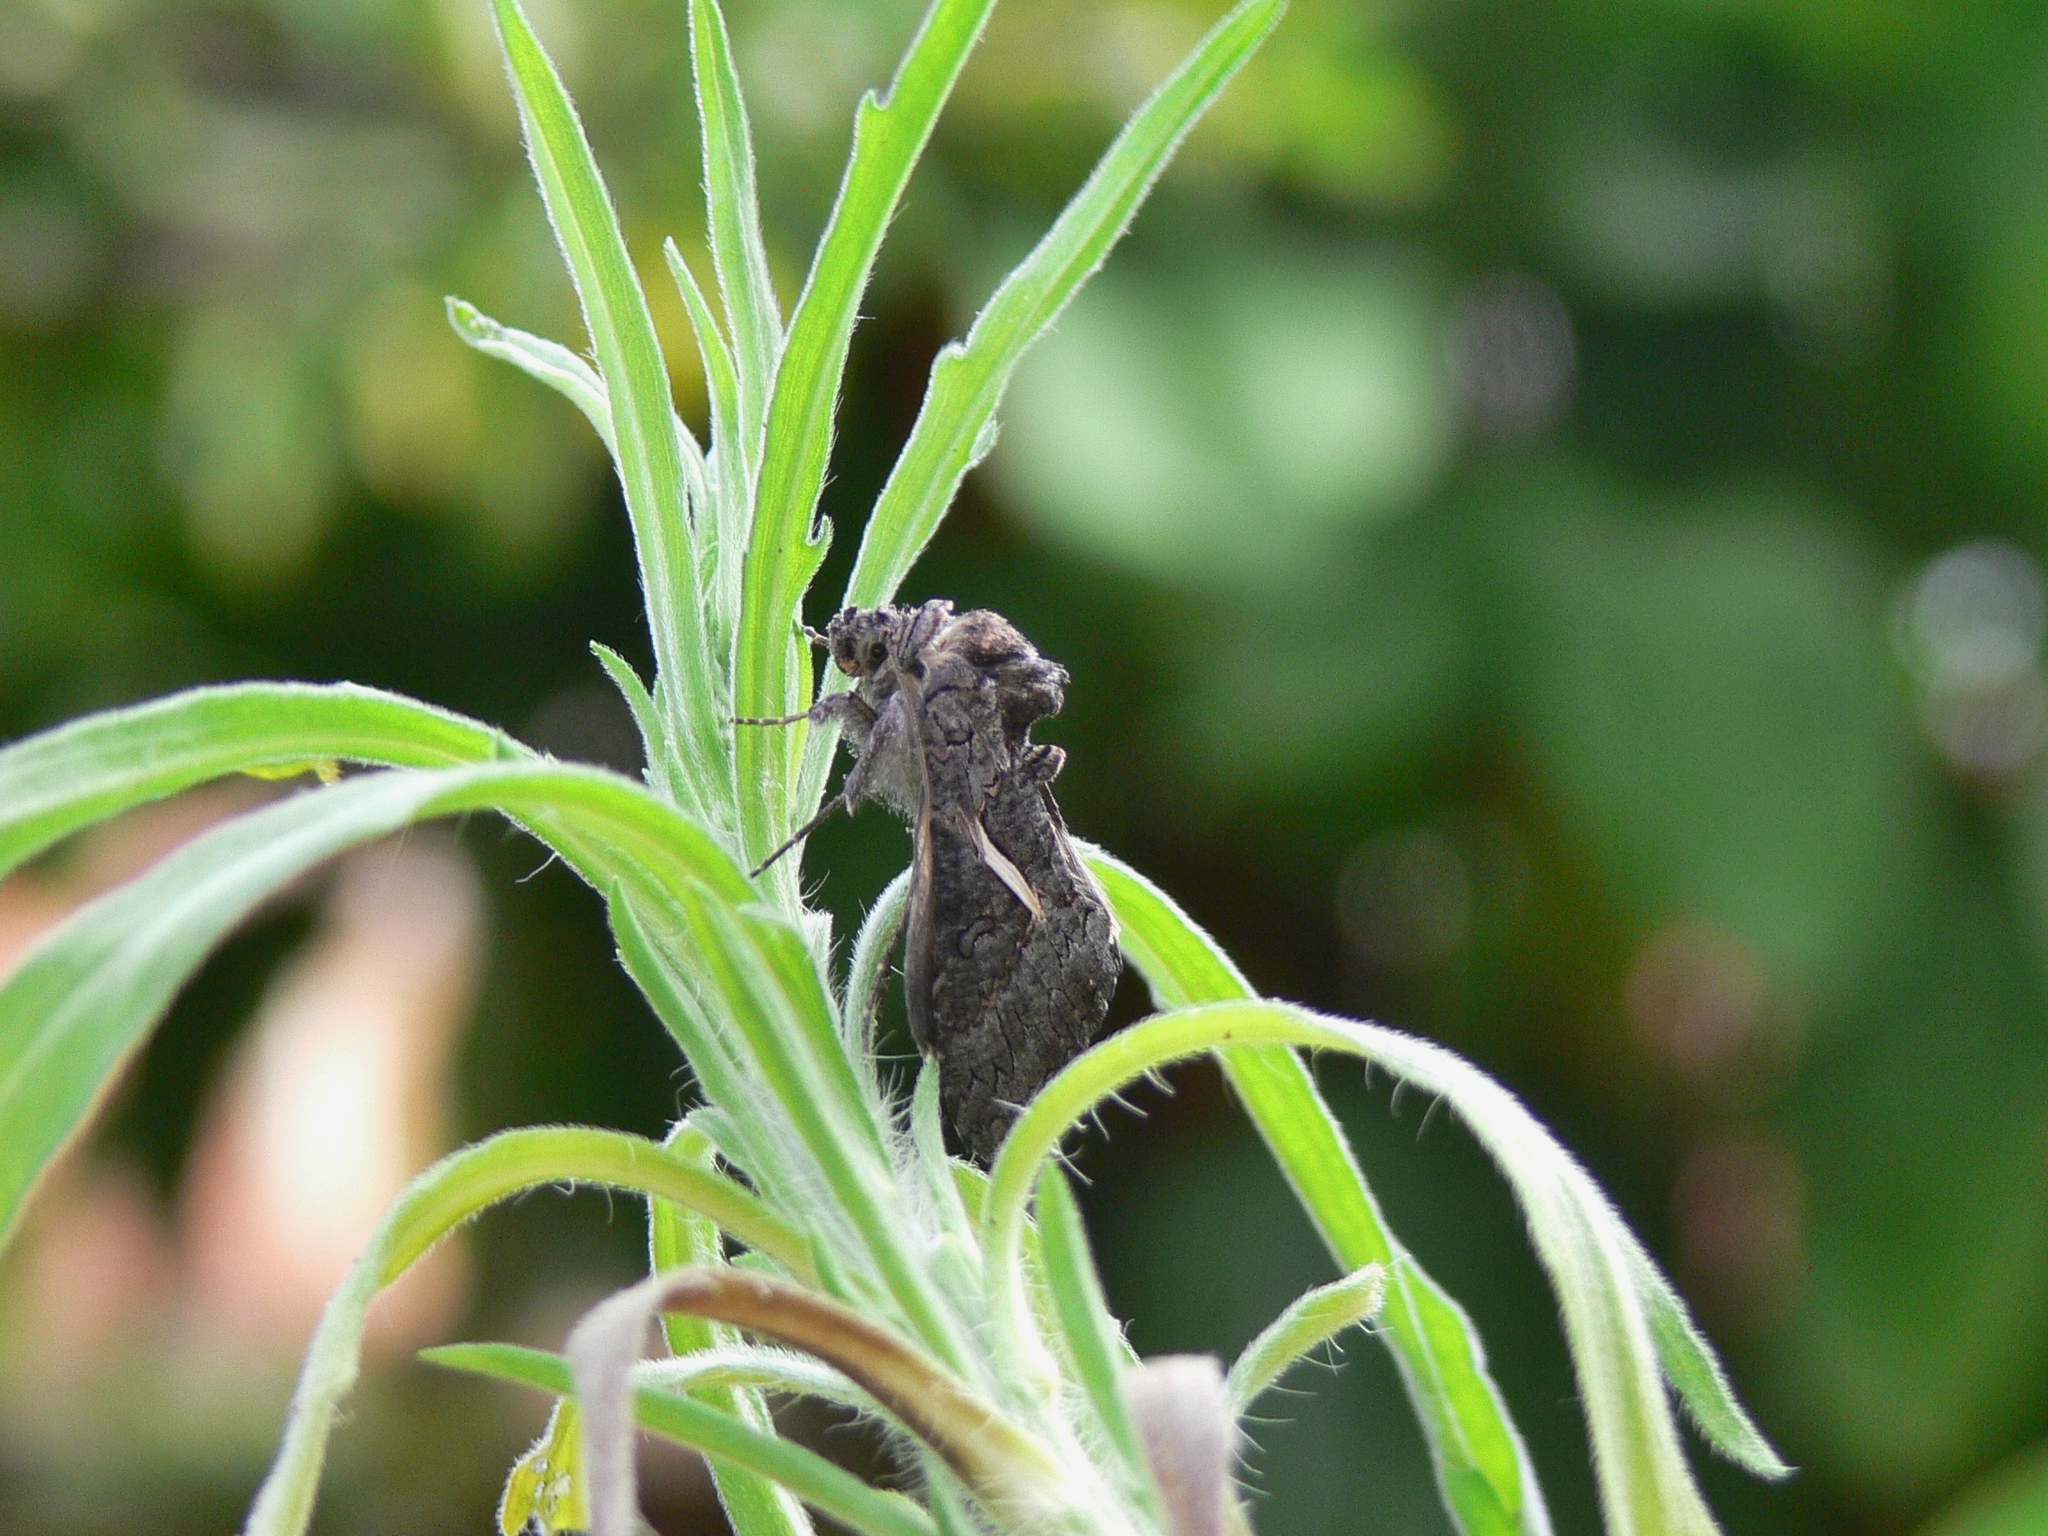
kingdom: Animalia
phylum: Arthropoda
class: Insecta
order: Lepidoptera
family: Noctuidae
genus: Vittaplusia
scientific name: Vittaplusia vittata
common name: Streaked plusia
